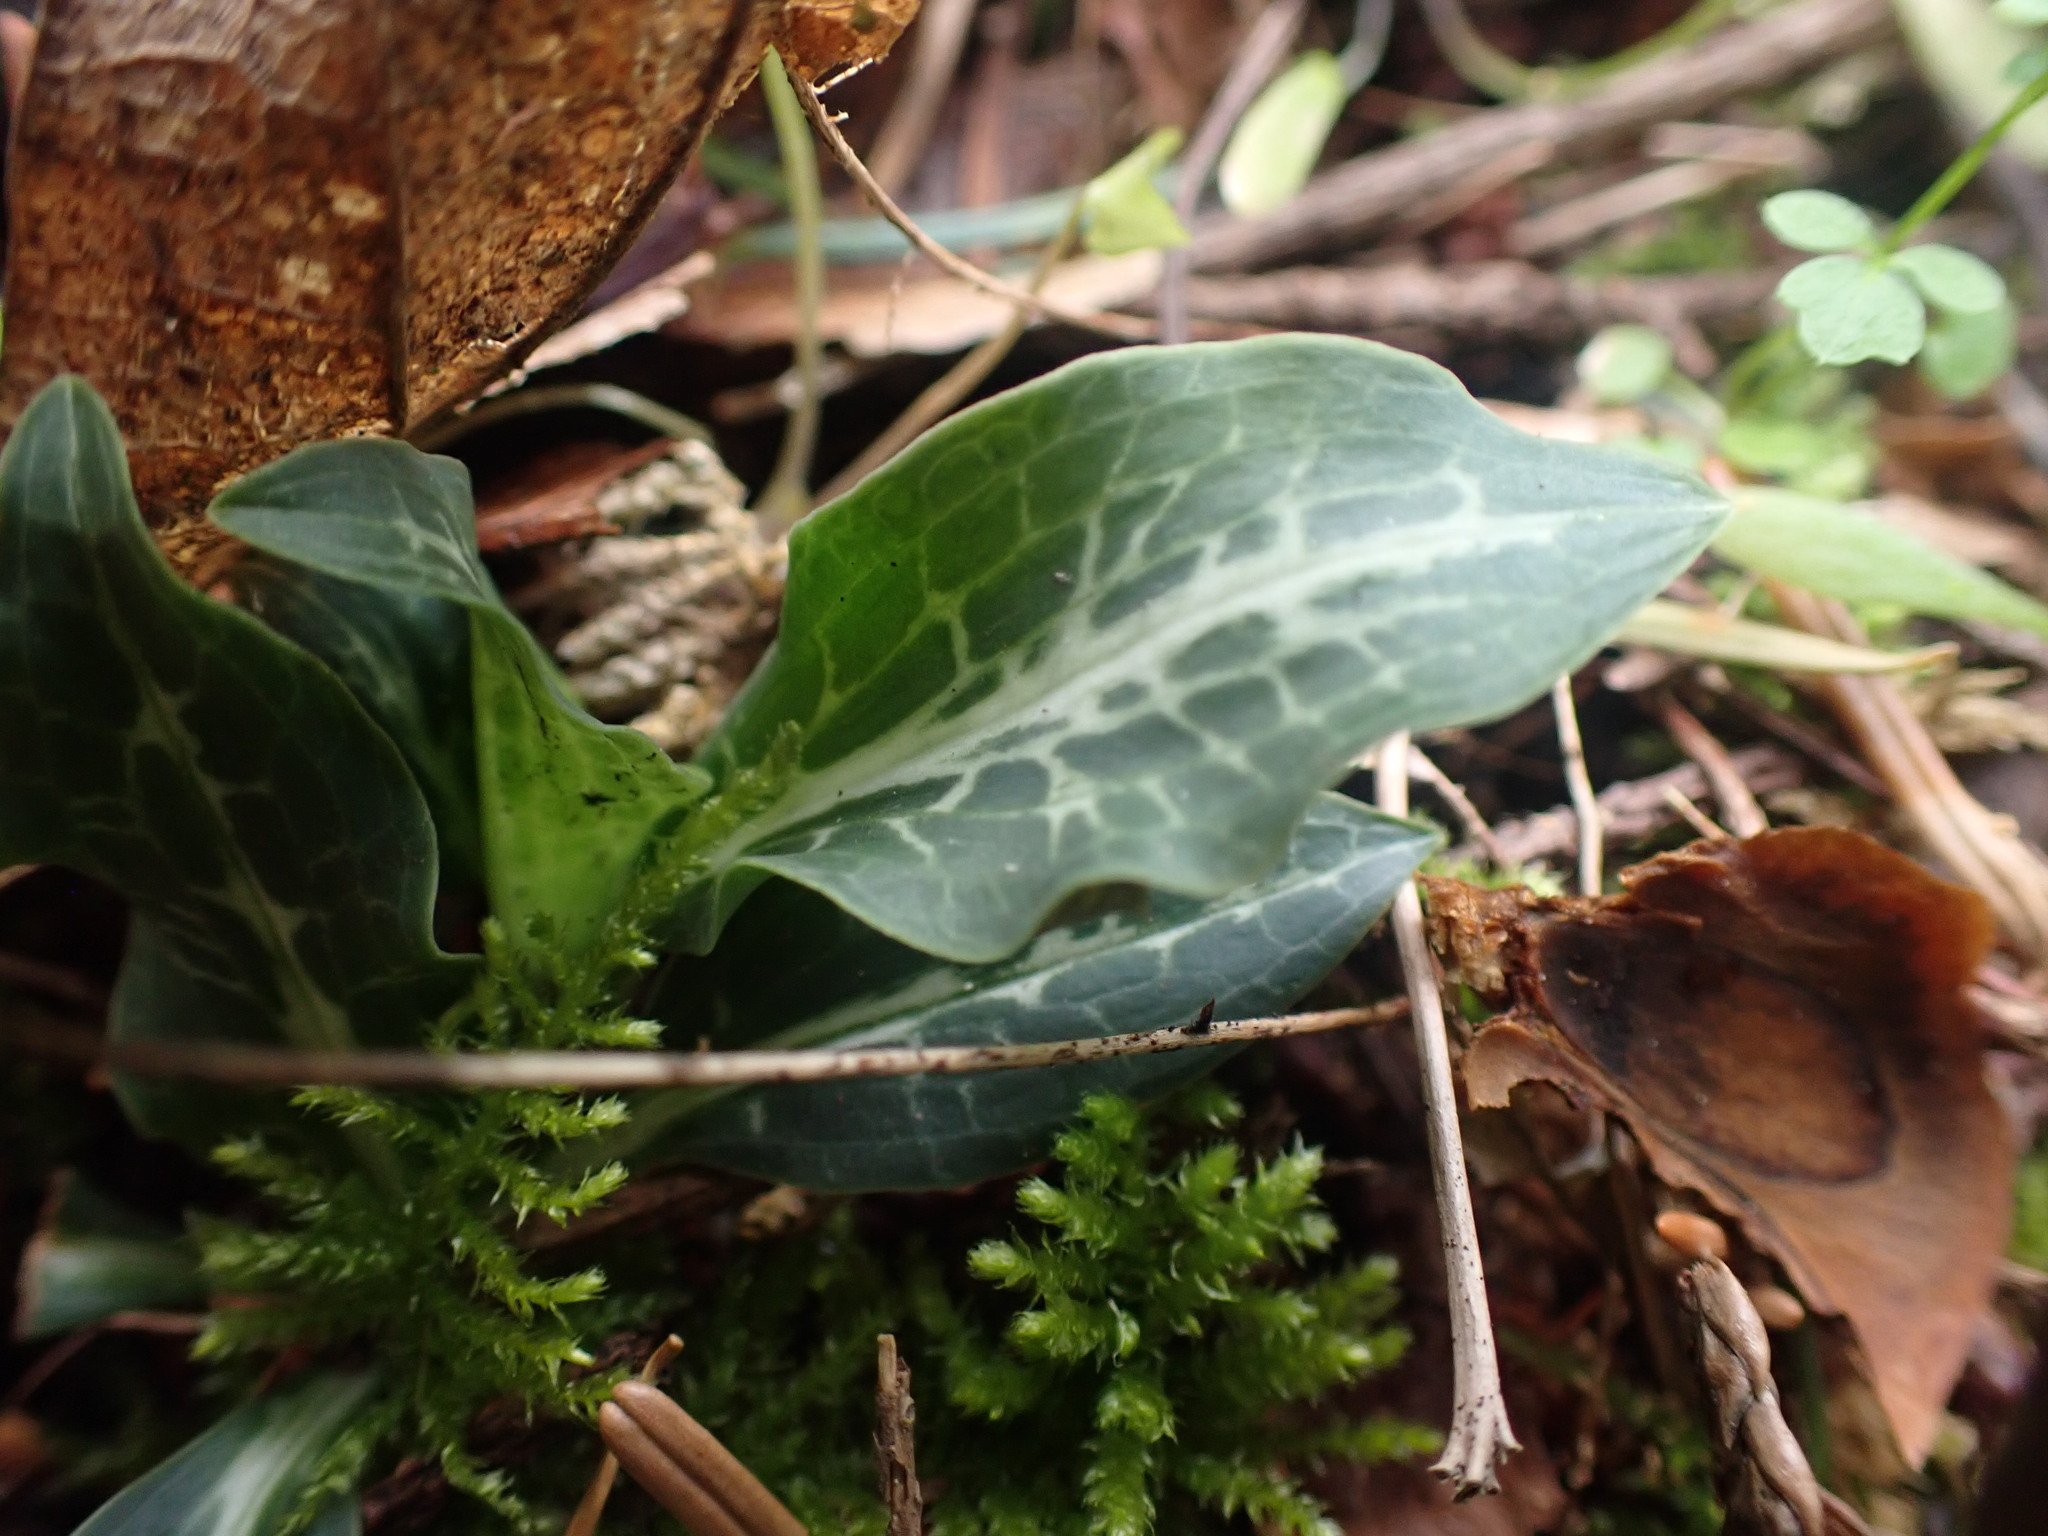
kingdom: Plantae
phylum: Tracheophyta
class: Liliopsida
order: Asparagales
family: Orchidaceae
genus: Goodyera
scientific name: Goodyera oblongifolia
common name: Giant rattlesnake-plantain
